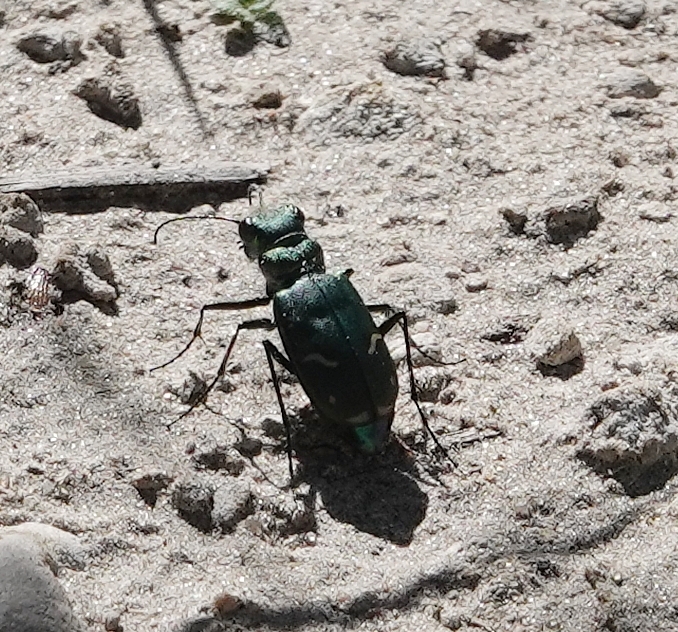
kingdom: Animalia
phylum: Arthropoda
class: Insecta
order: Coleoptera
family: Carabidae
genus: Cicindela
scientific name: Cicindela purpurea
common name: Cow path tiger beetle
